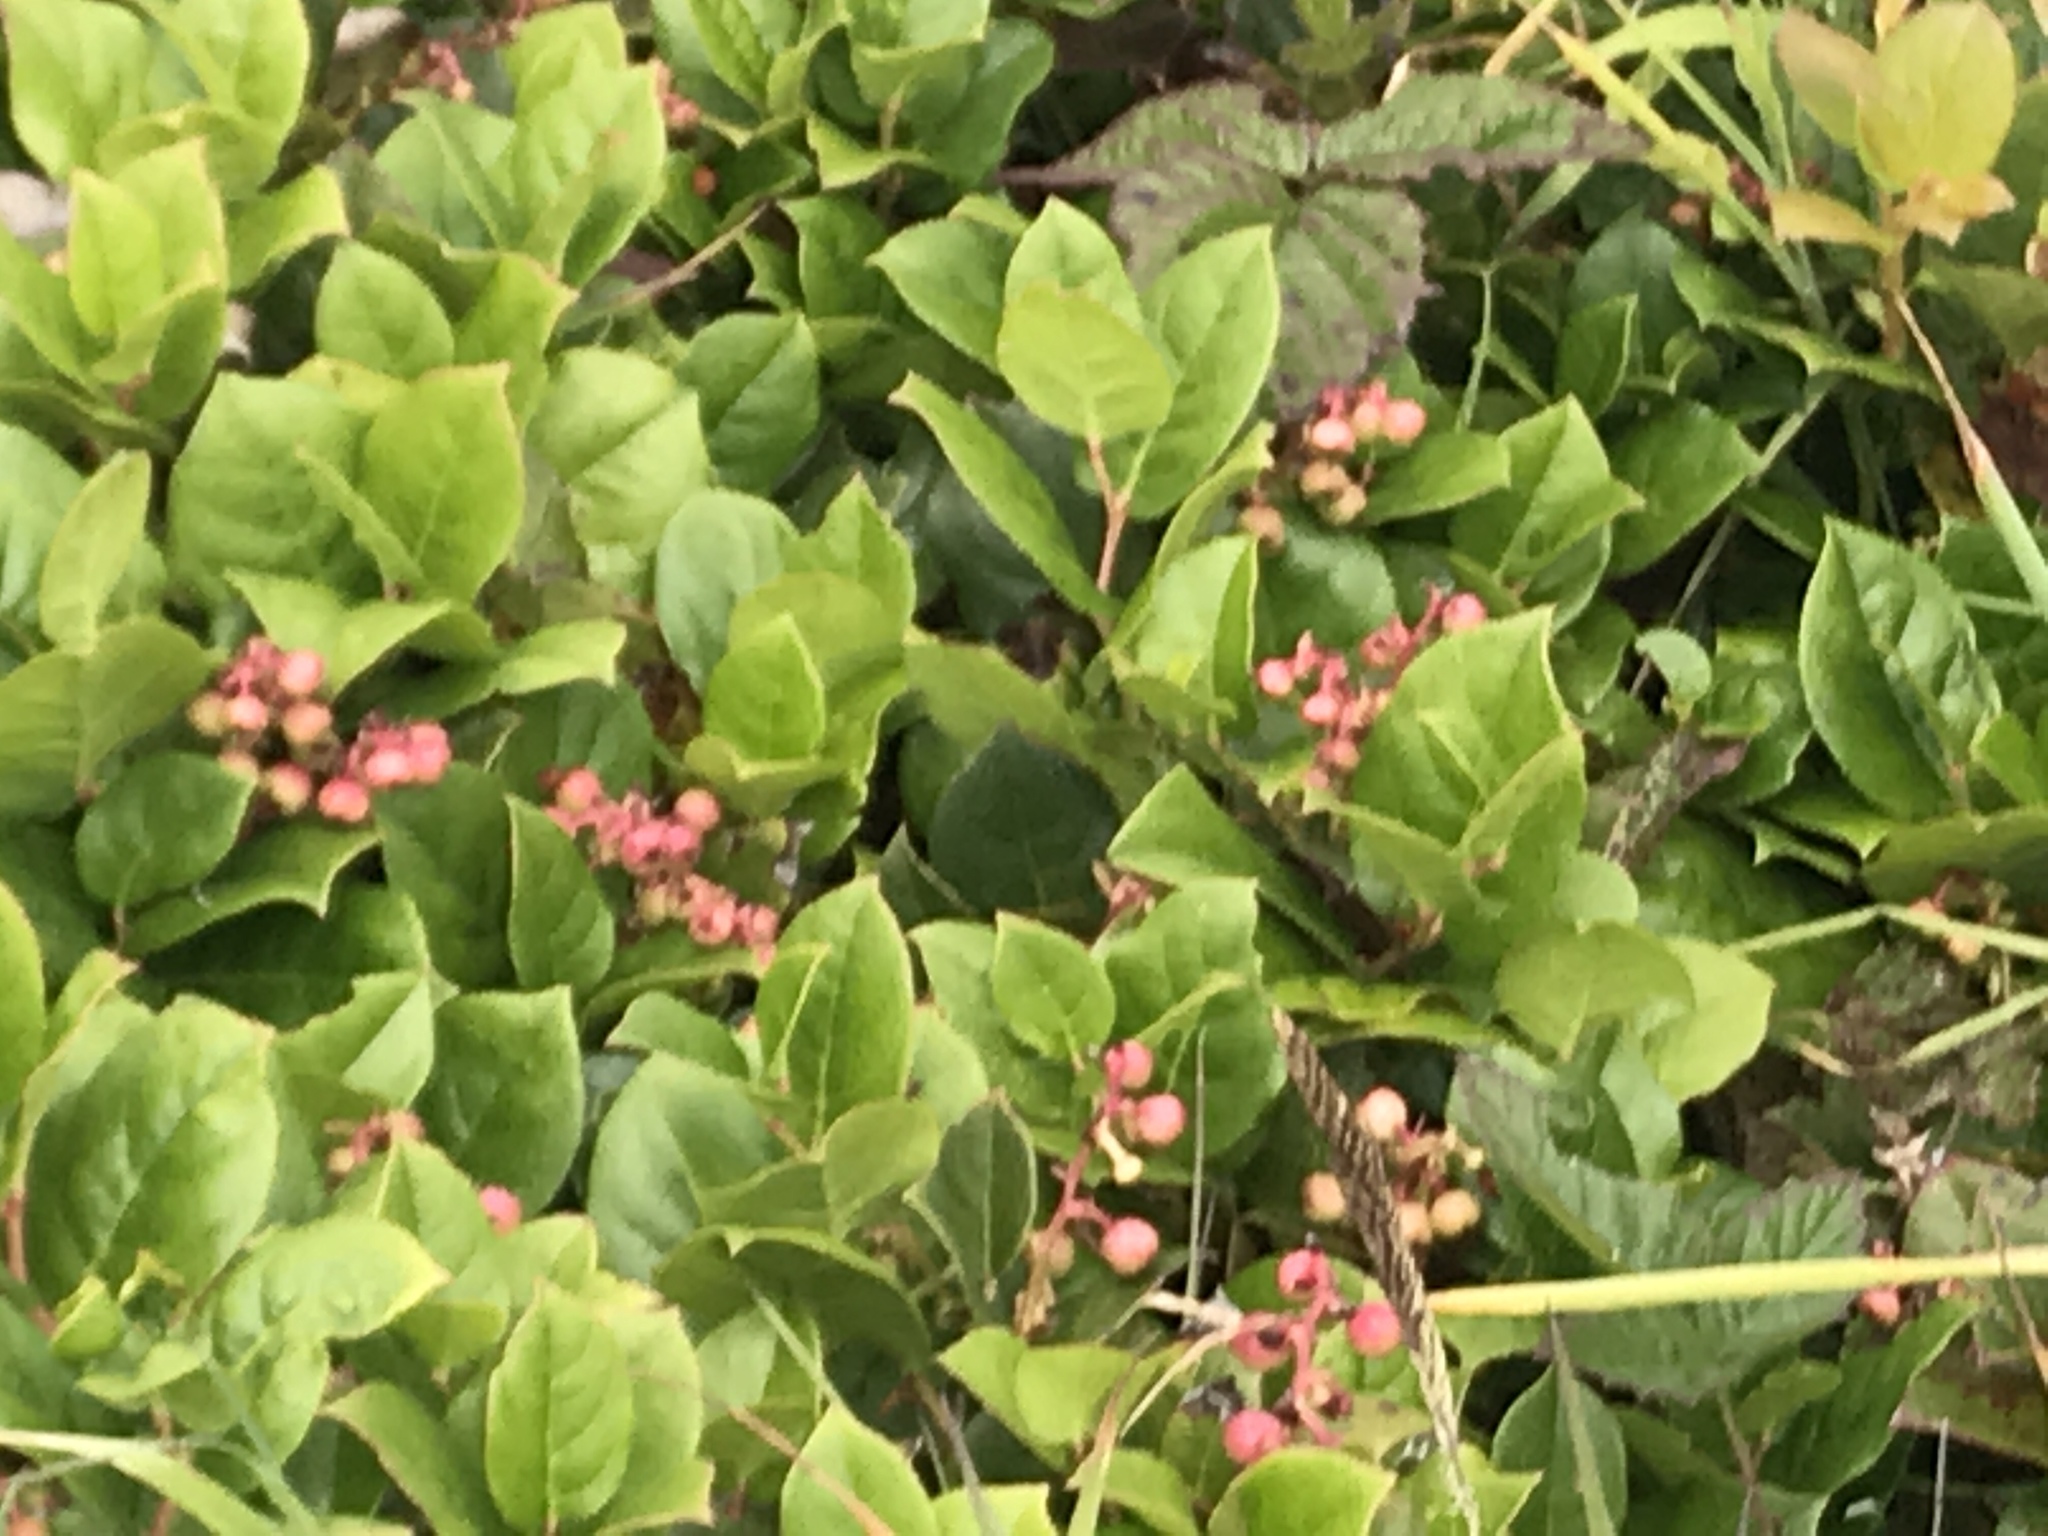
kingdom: Plantae
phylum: Tracheophyta
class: Magnoliopsida
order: Ericales
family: Ericaceae
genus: Gaultheria
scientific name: Gaultheria shallon
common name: Shallon
